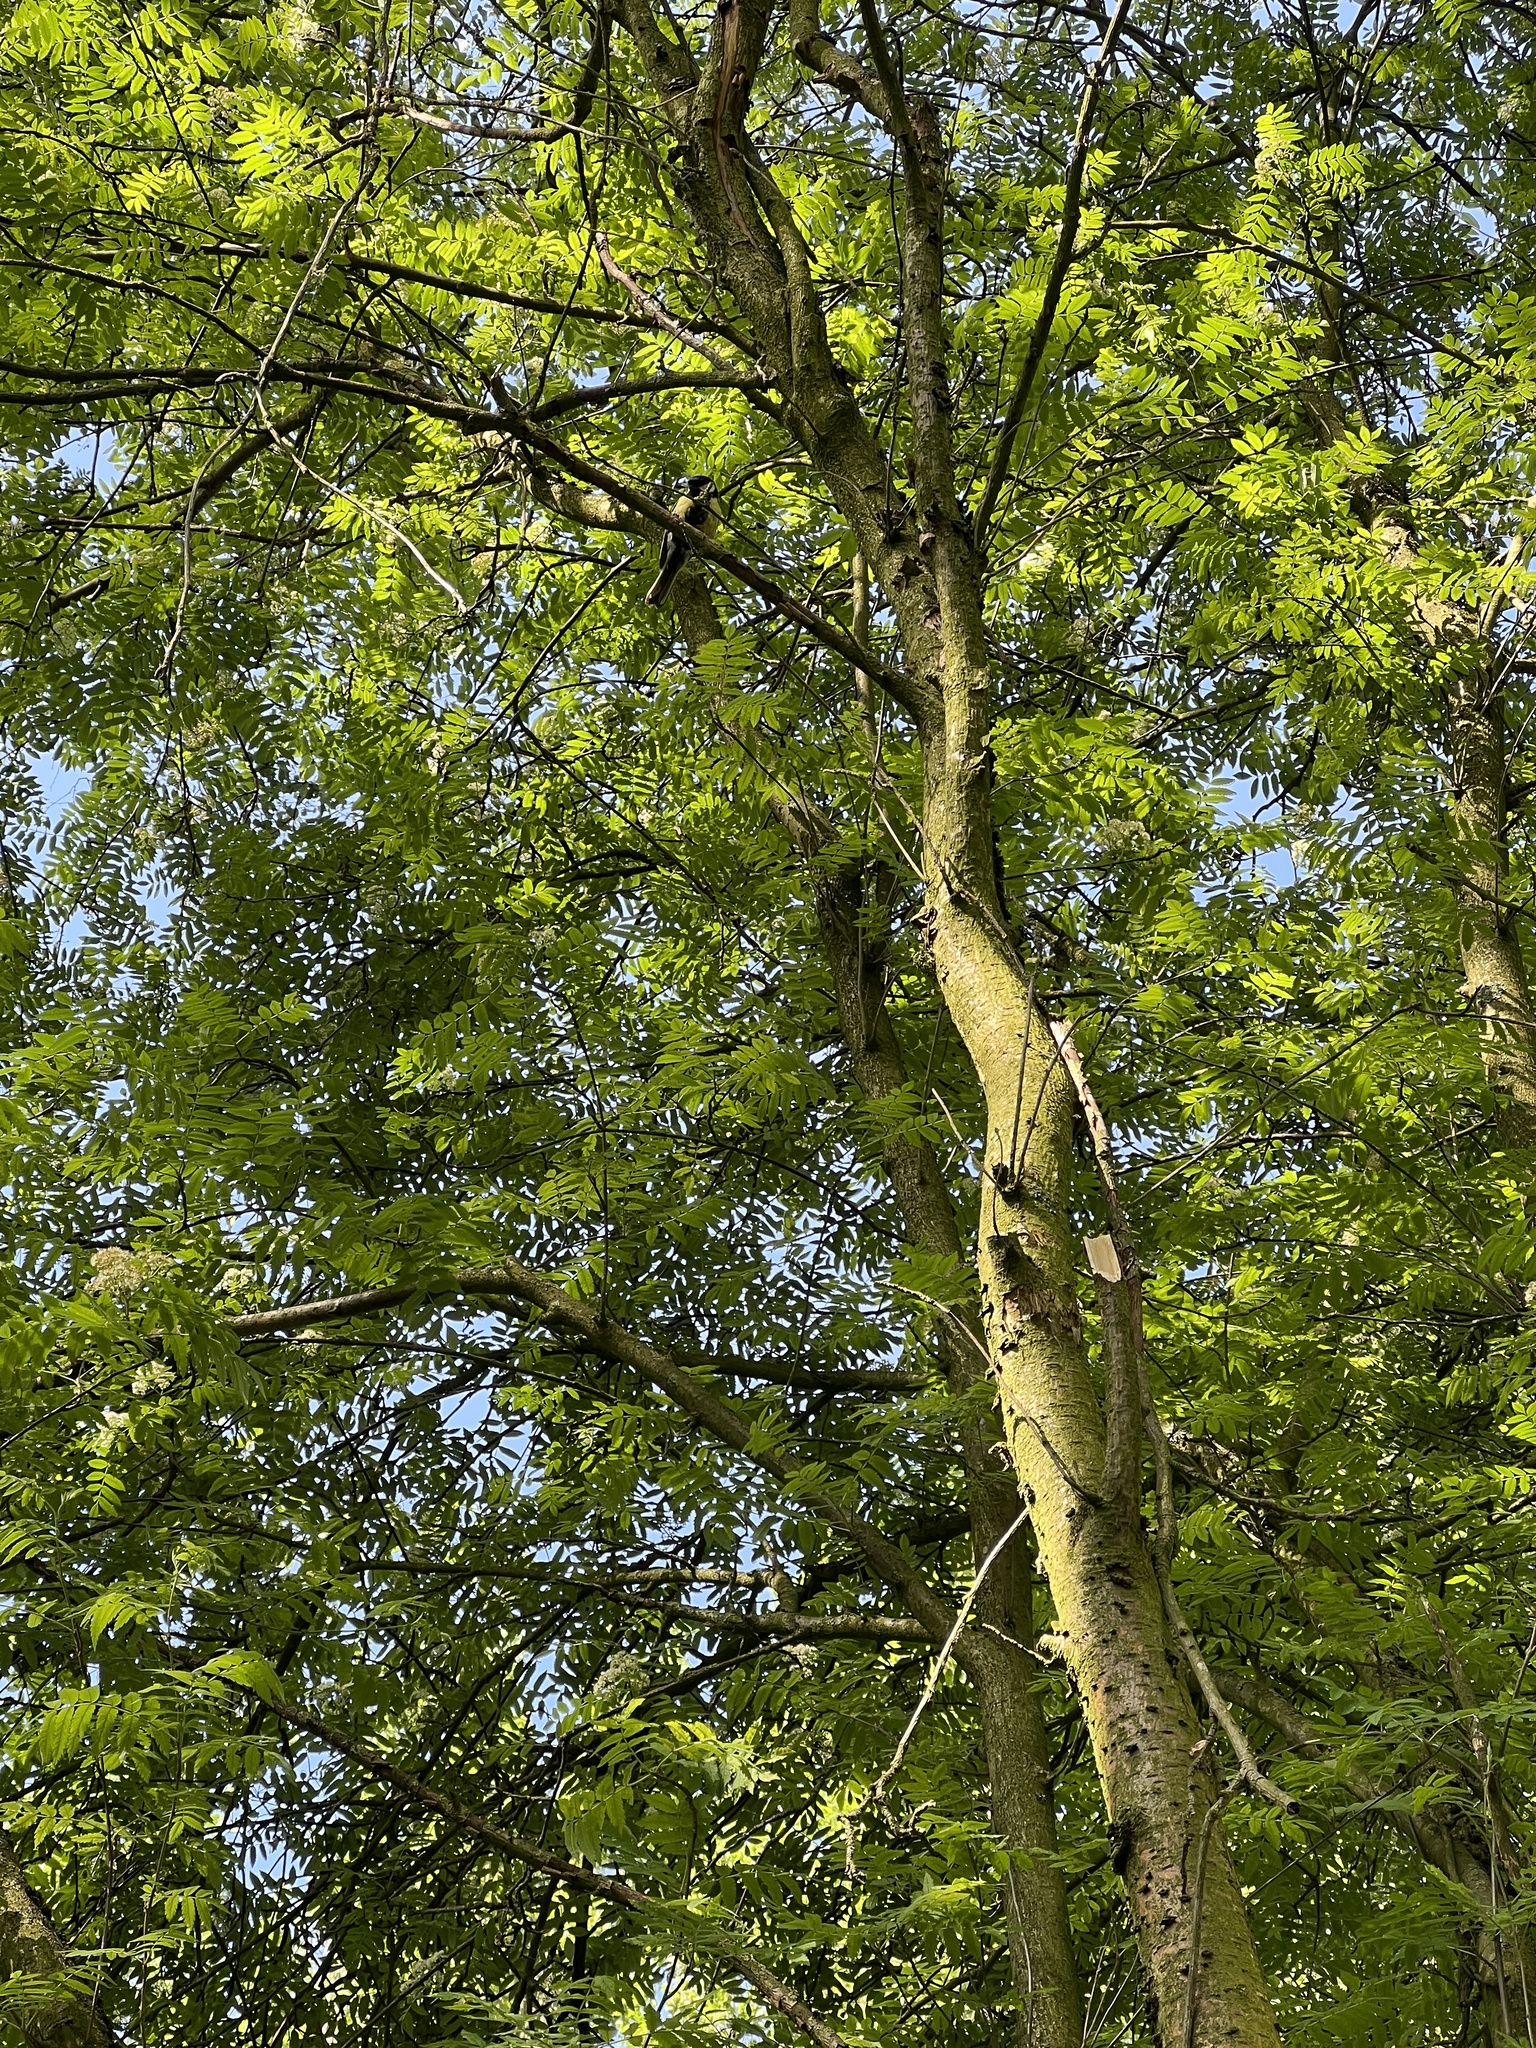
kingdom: Animalia
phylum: Chordata
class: Aves
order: Passeriformes
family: Paridae
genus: Parus
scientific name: Parus major
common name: Great tit
